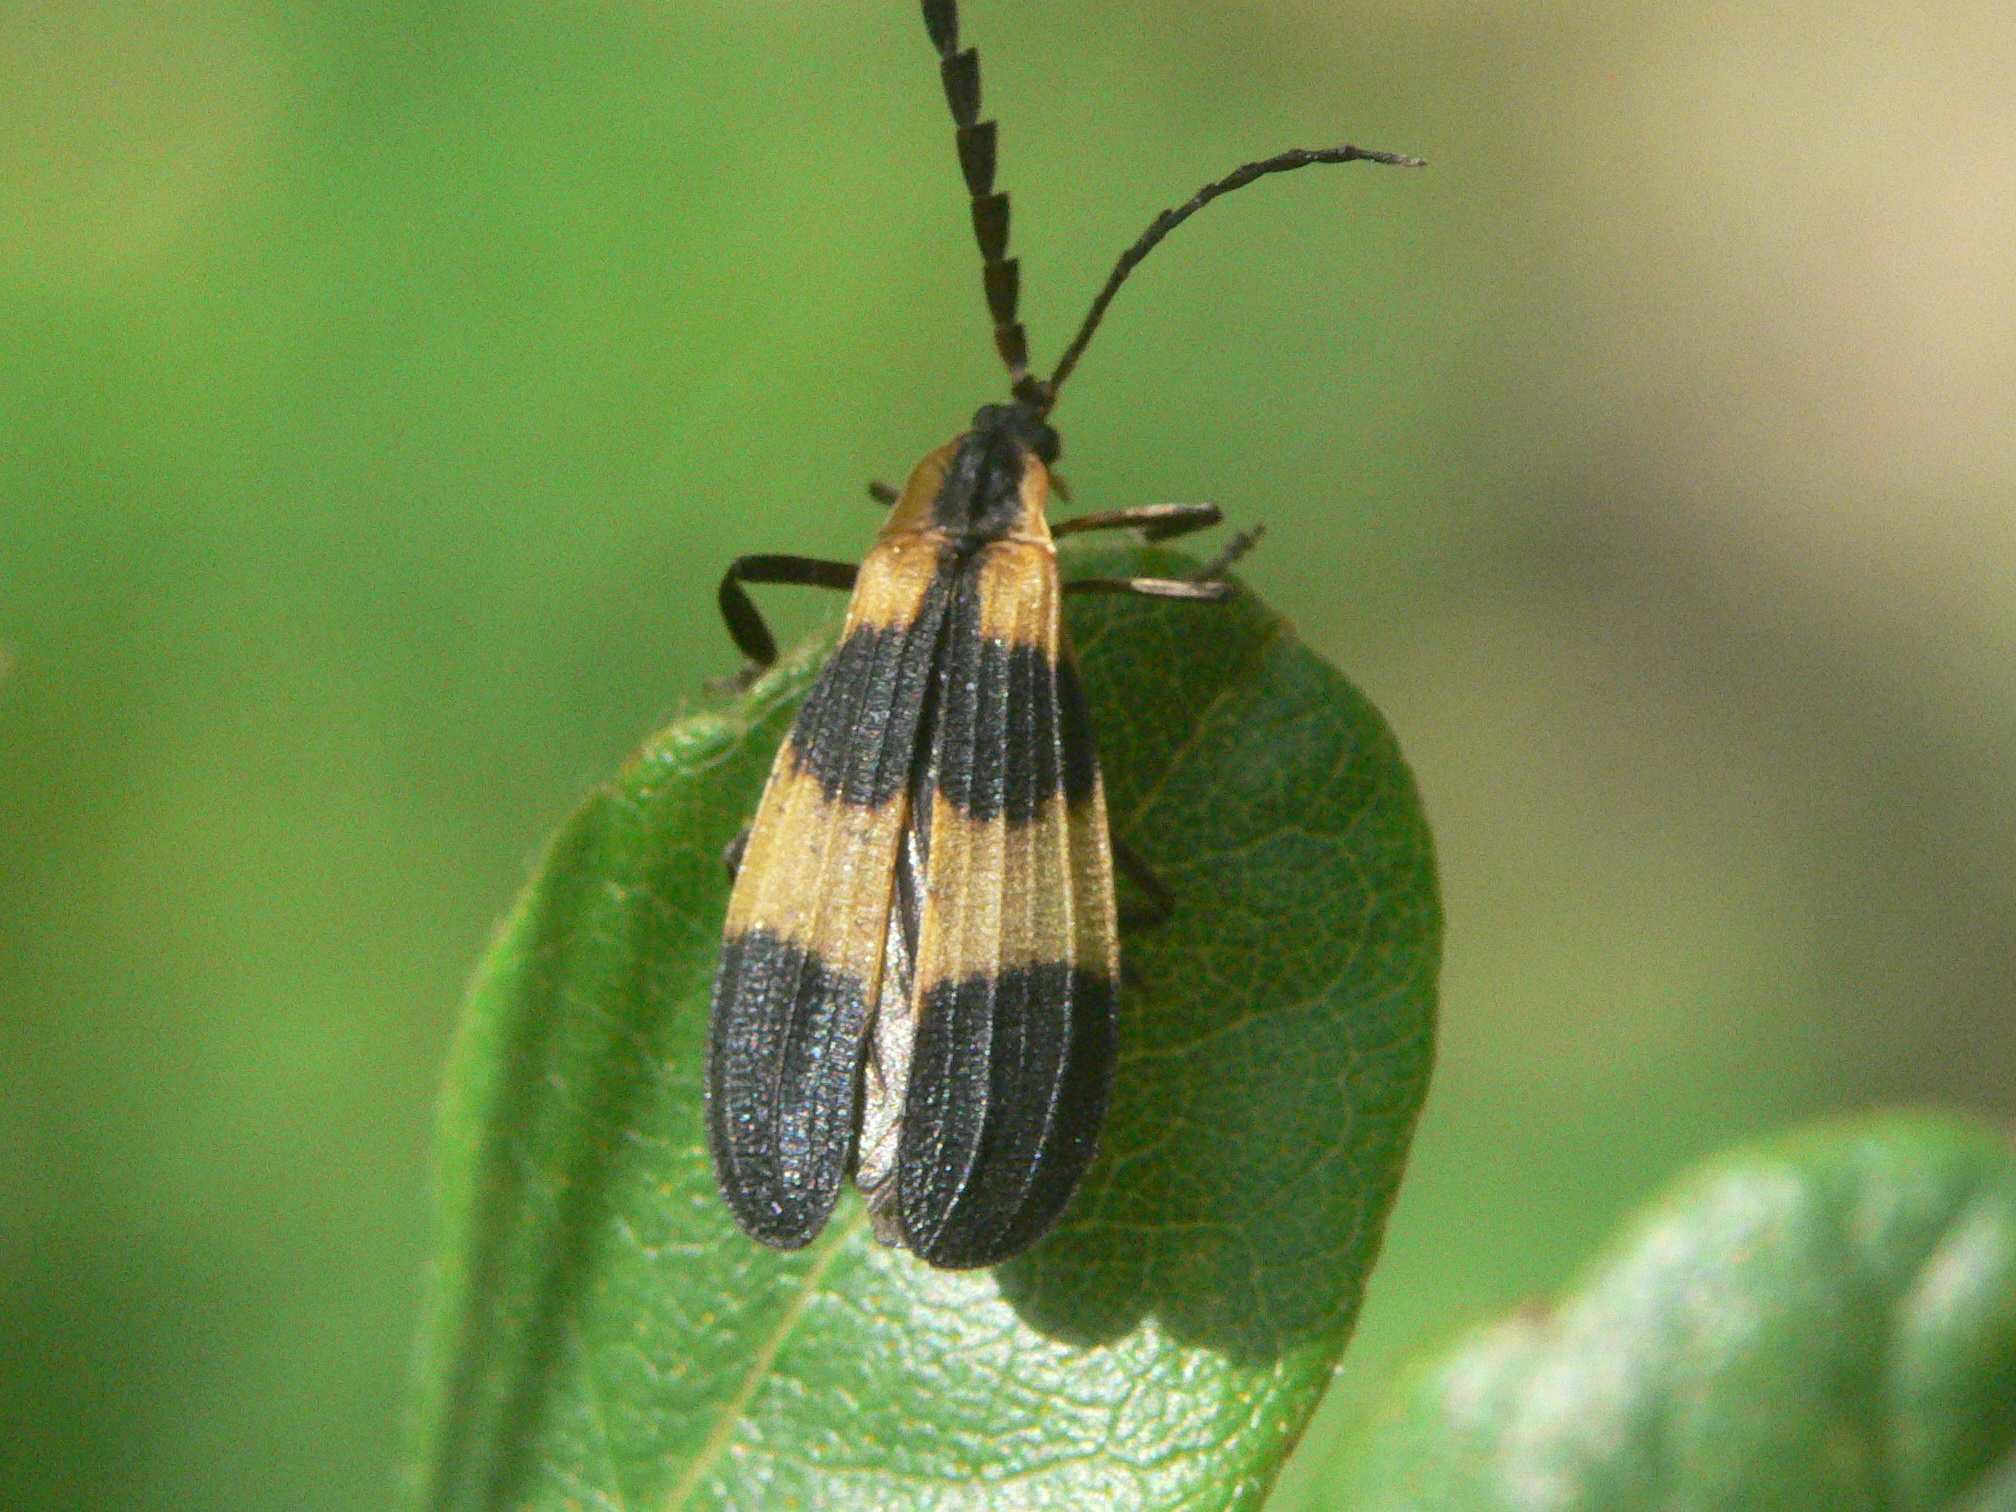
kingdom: Animalia
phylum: Arthropoda
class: Insecta
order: Coleoptera
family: Lycidae
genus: Calopteron
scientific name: Calopteron reticulatum
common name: Banded net-winged beetle
